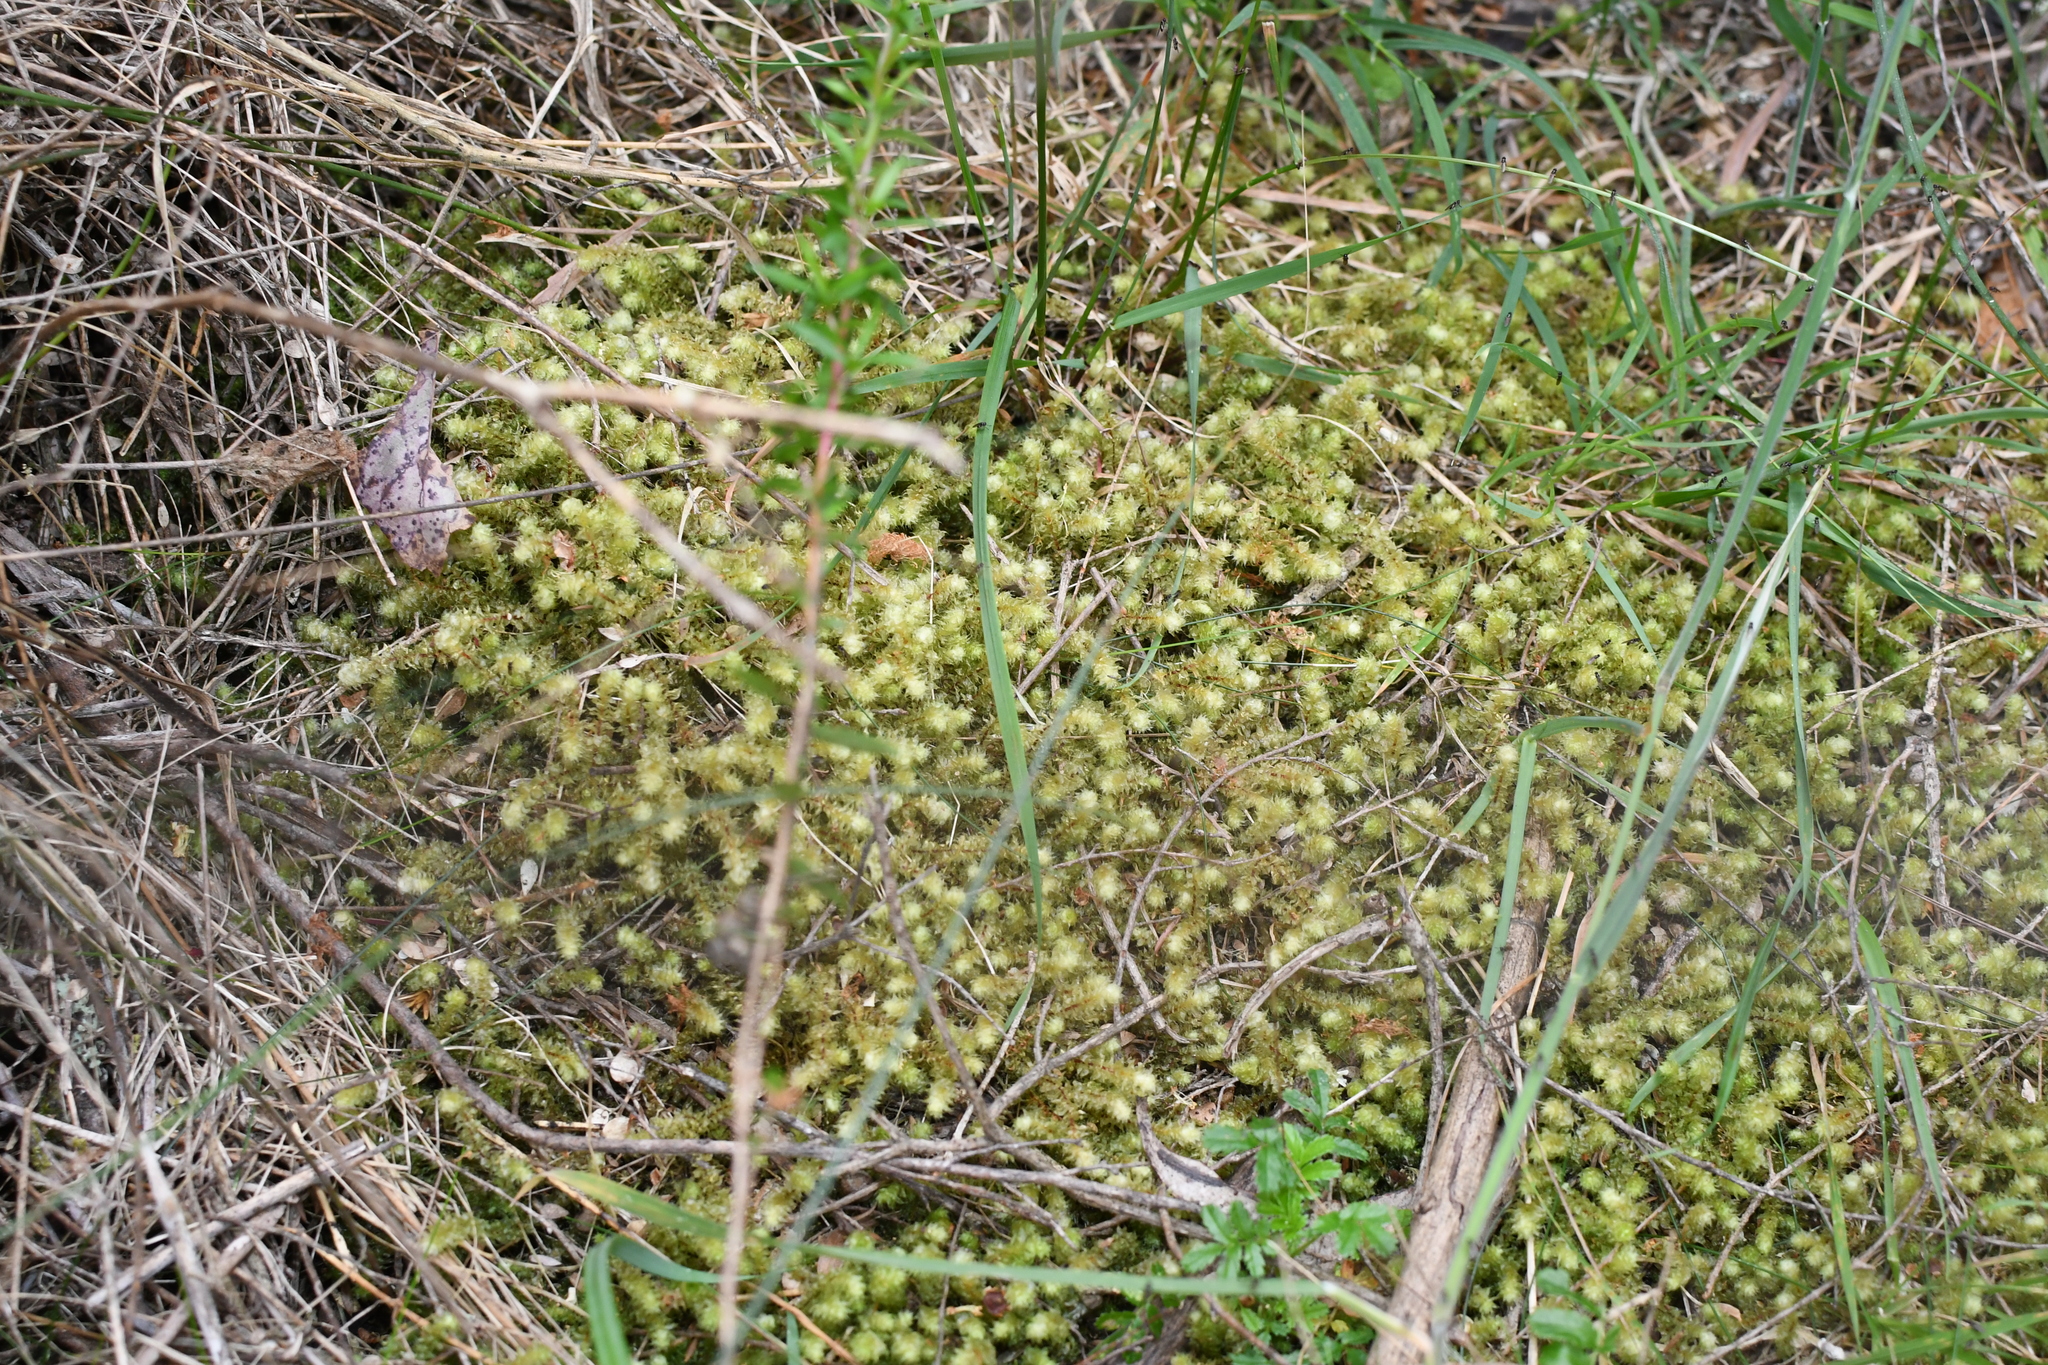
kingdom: Plantae
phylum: Bryophyta
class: Bryopsida
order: Ptychomniales
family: Ptychomniaceae
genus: Ptychomnion
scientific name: Ptychomnion aciculare
